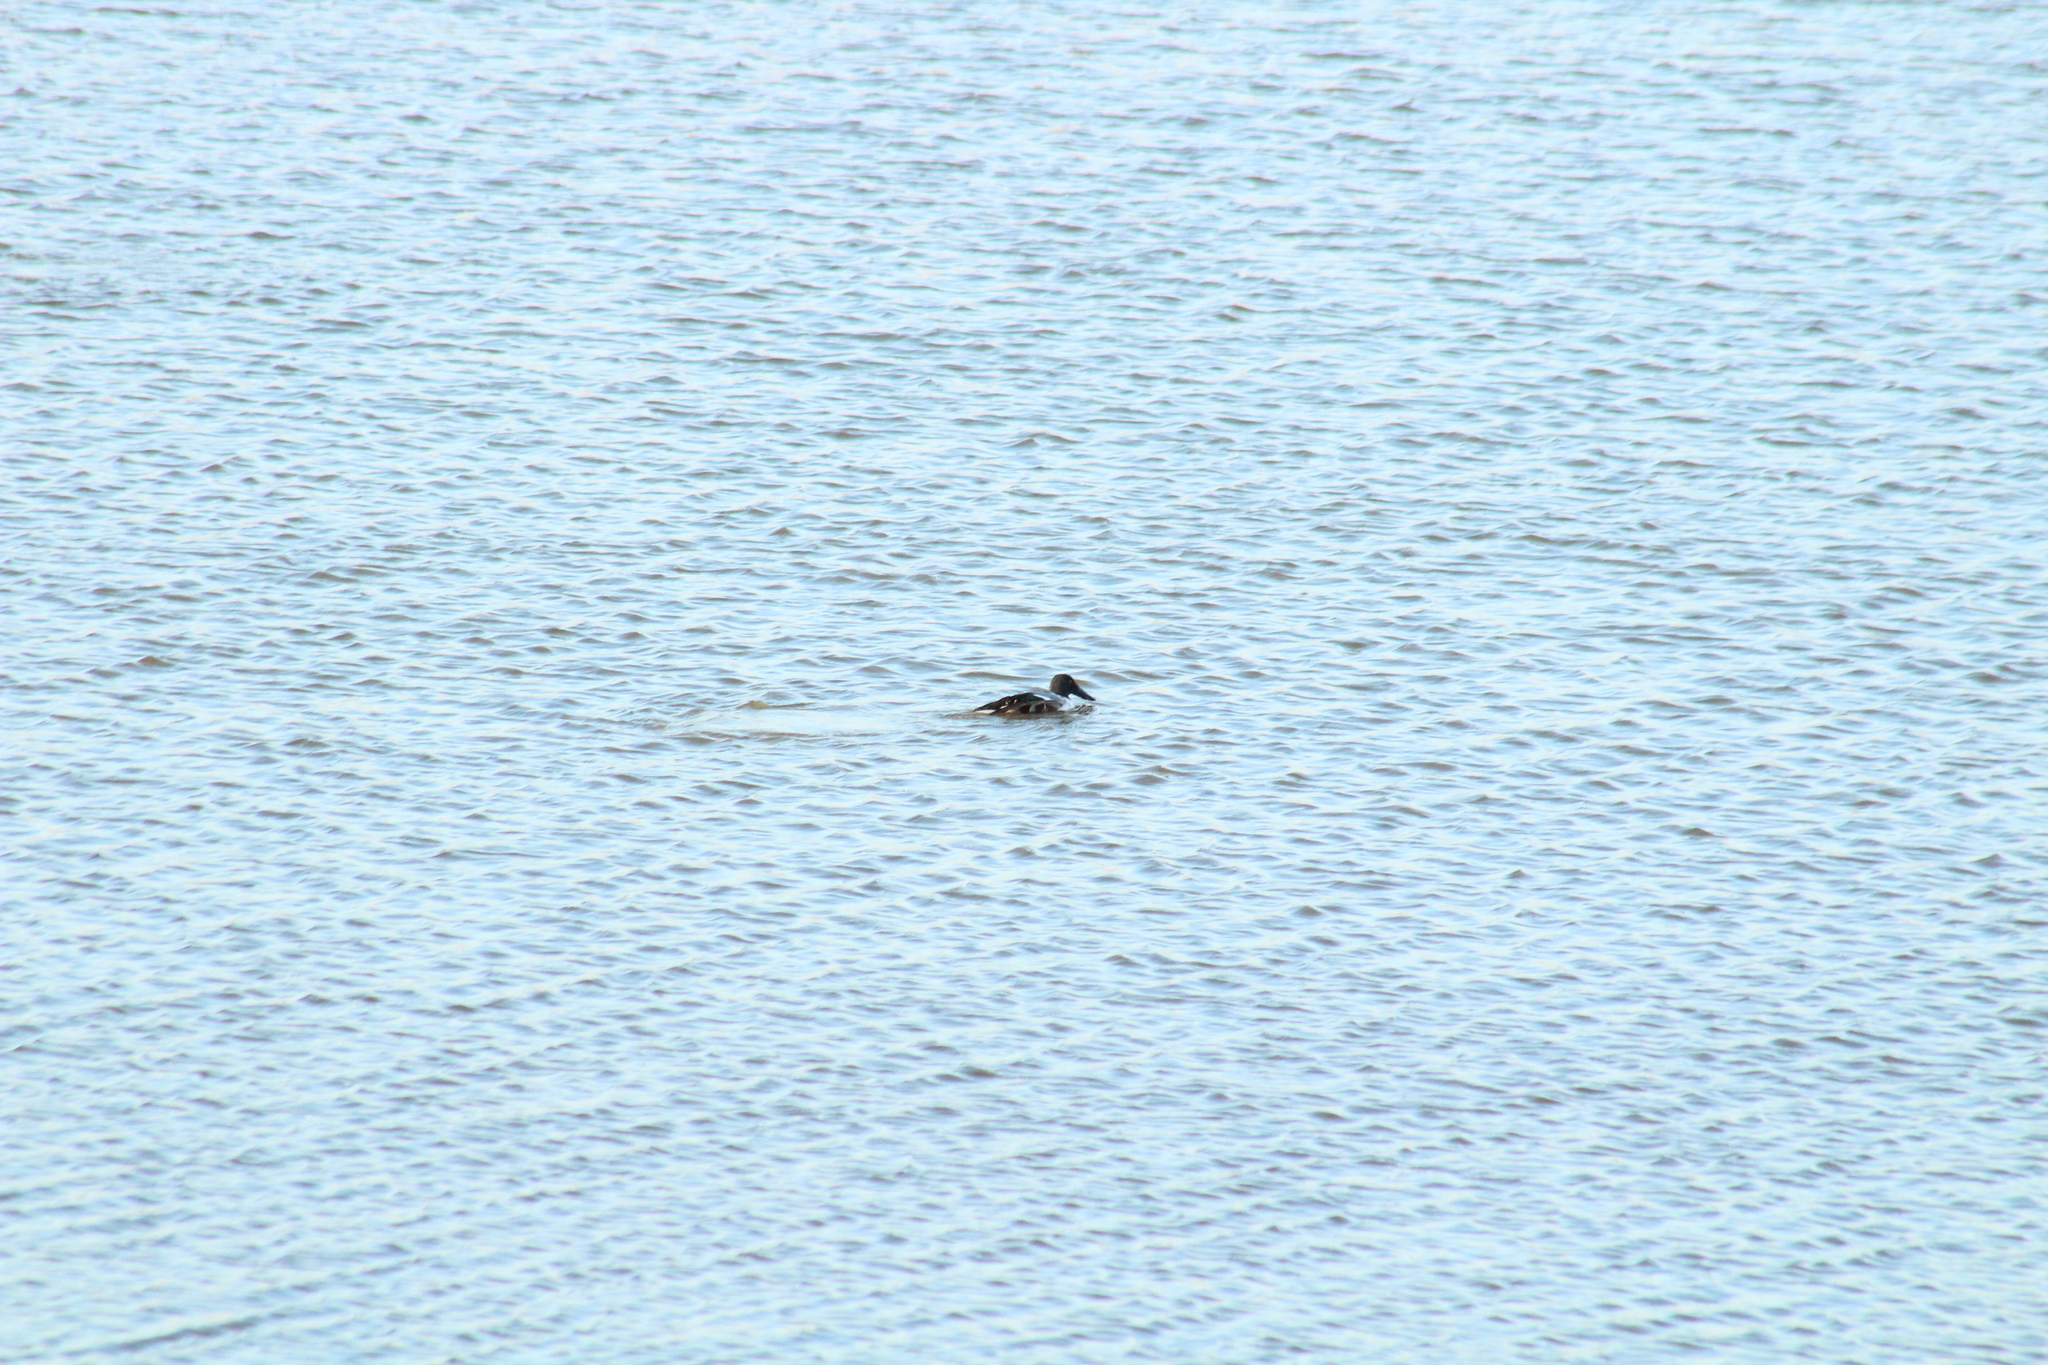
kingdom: Animalia
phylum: Chordata
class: Aves
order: Anseriformes
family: Anatidae
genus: Spatula
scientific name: Spatula clypeata
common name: Northern shoveler
